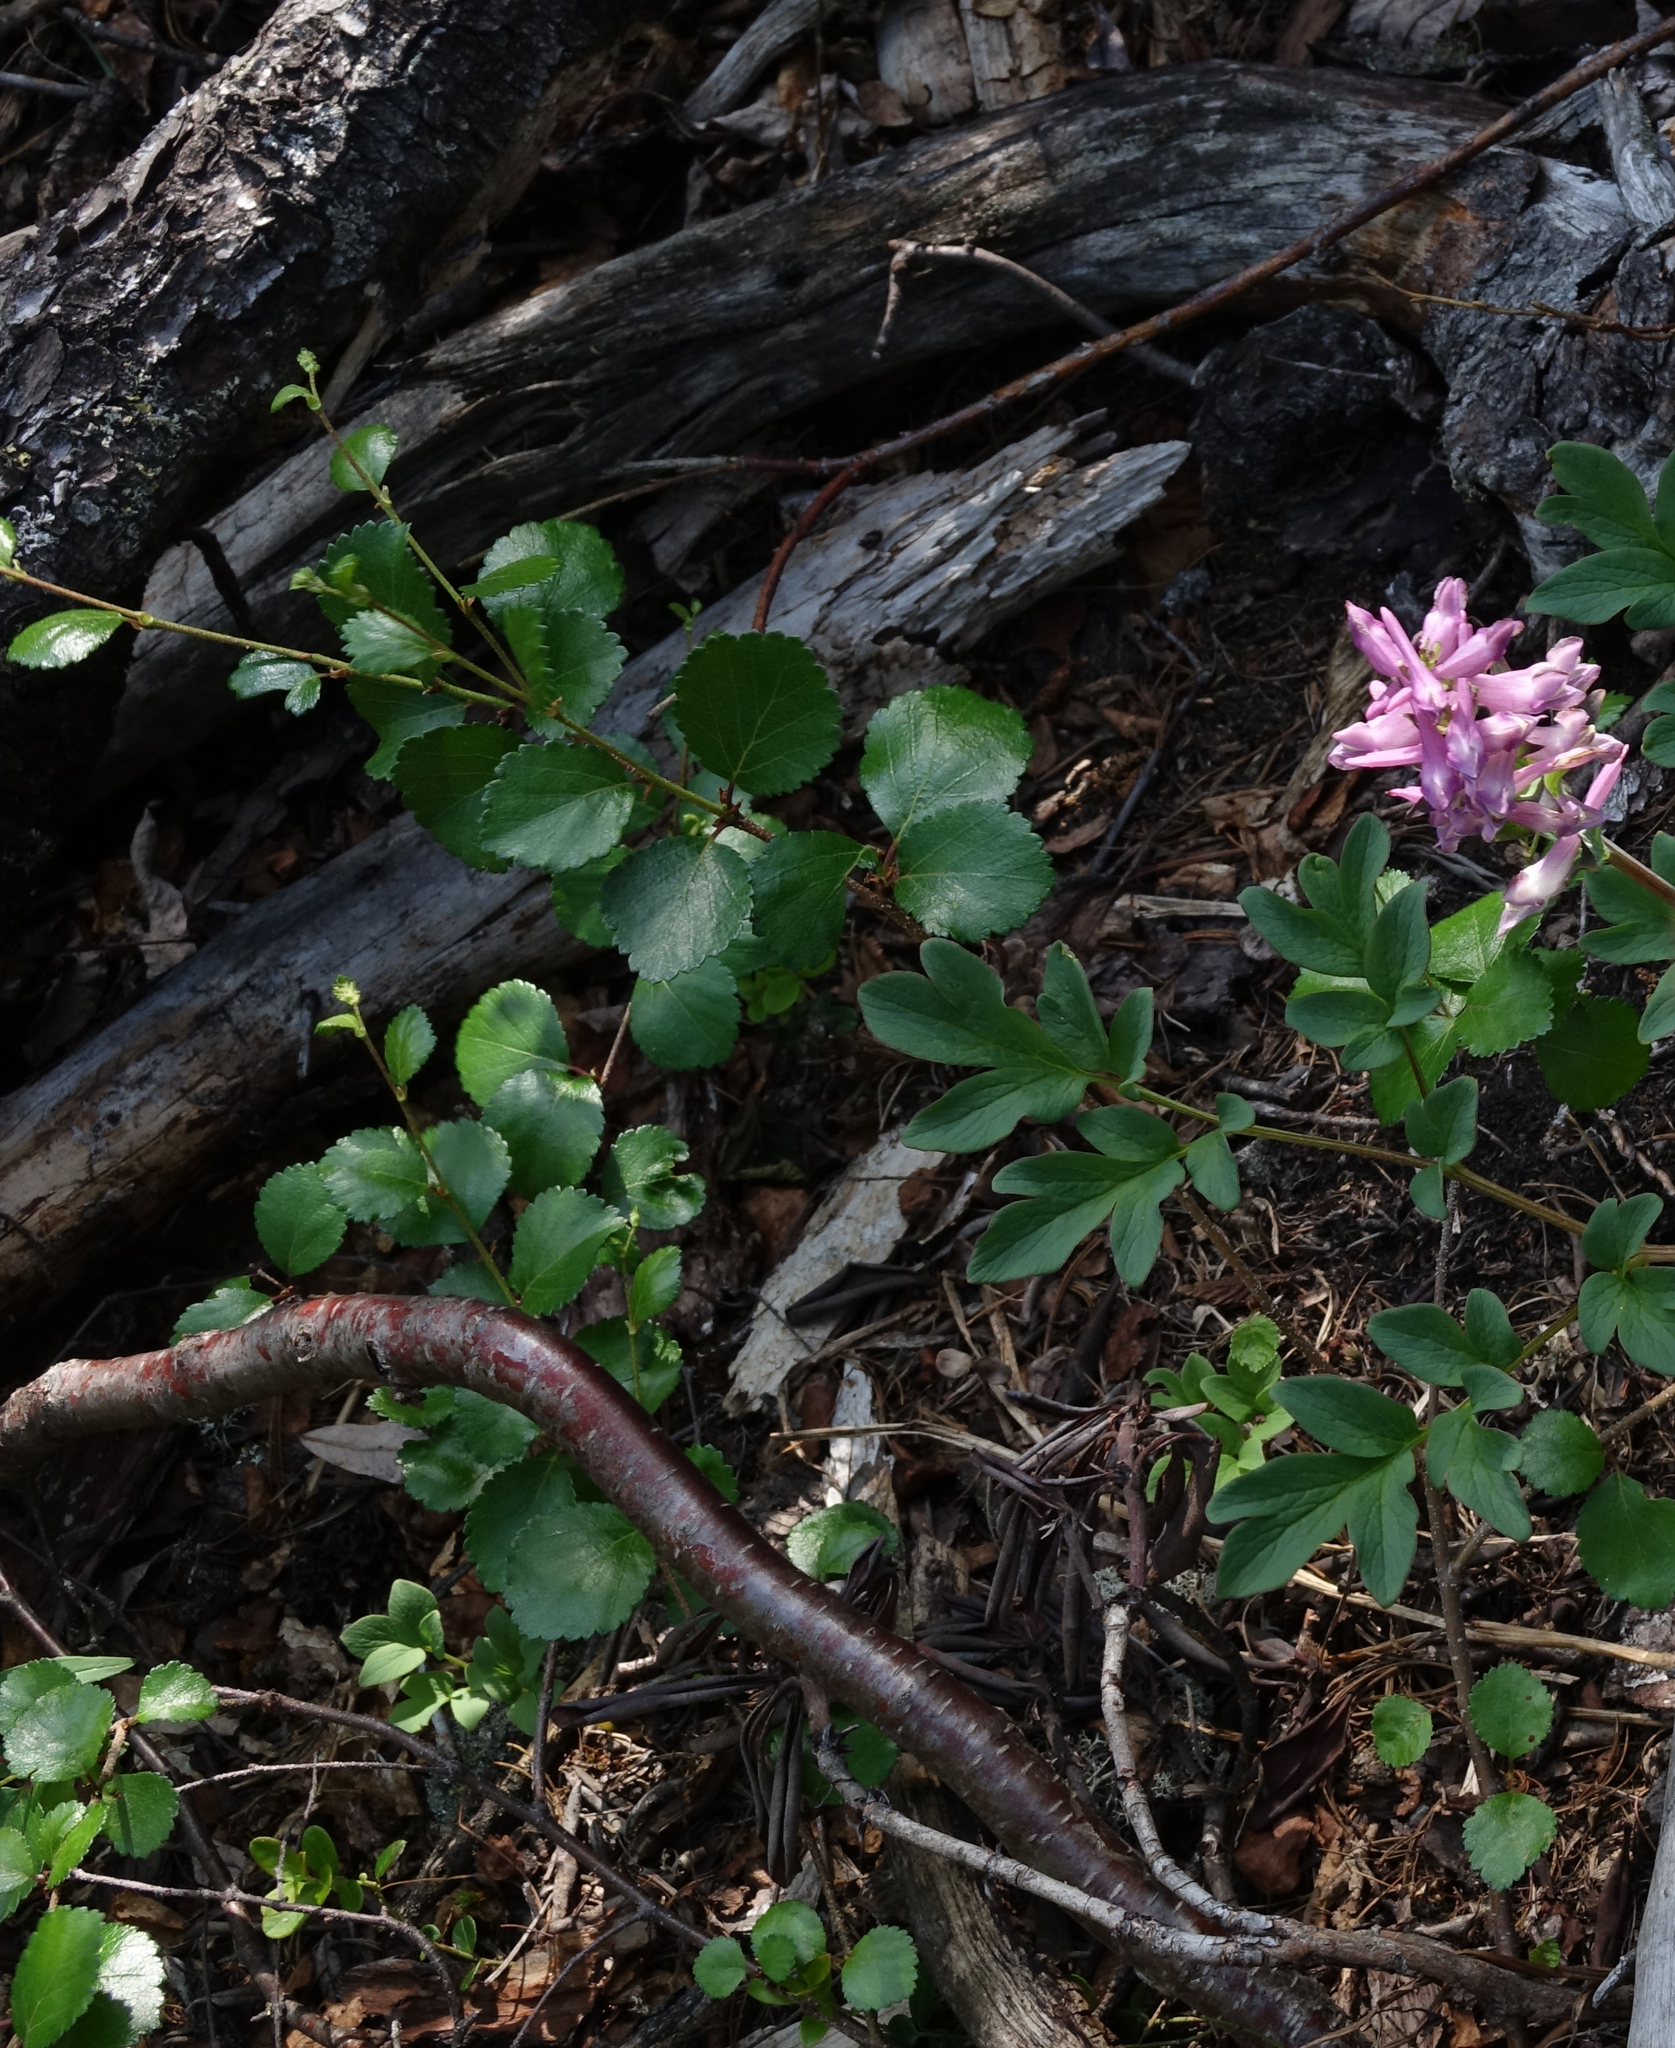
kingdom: Plantae
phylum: Tracheophyta
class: Magnoliopsida
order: Fagales
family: Betulaceae
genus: Betula
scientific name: Betula fruticosa
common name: Japanese bog birch
